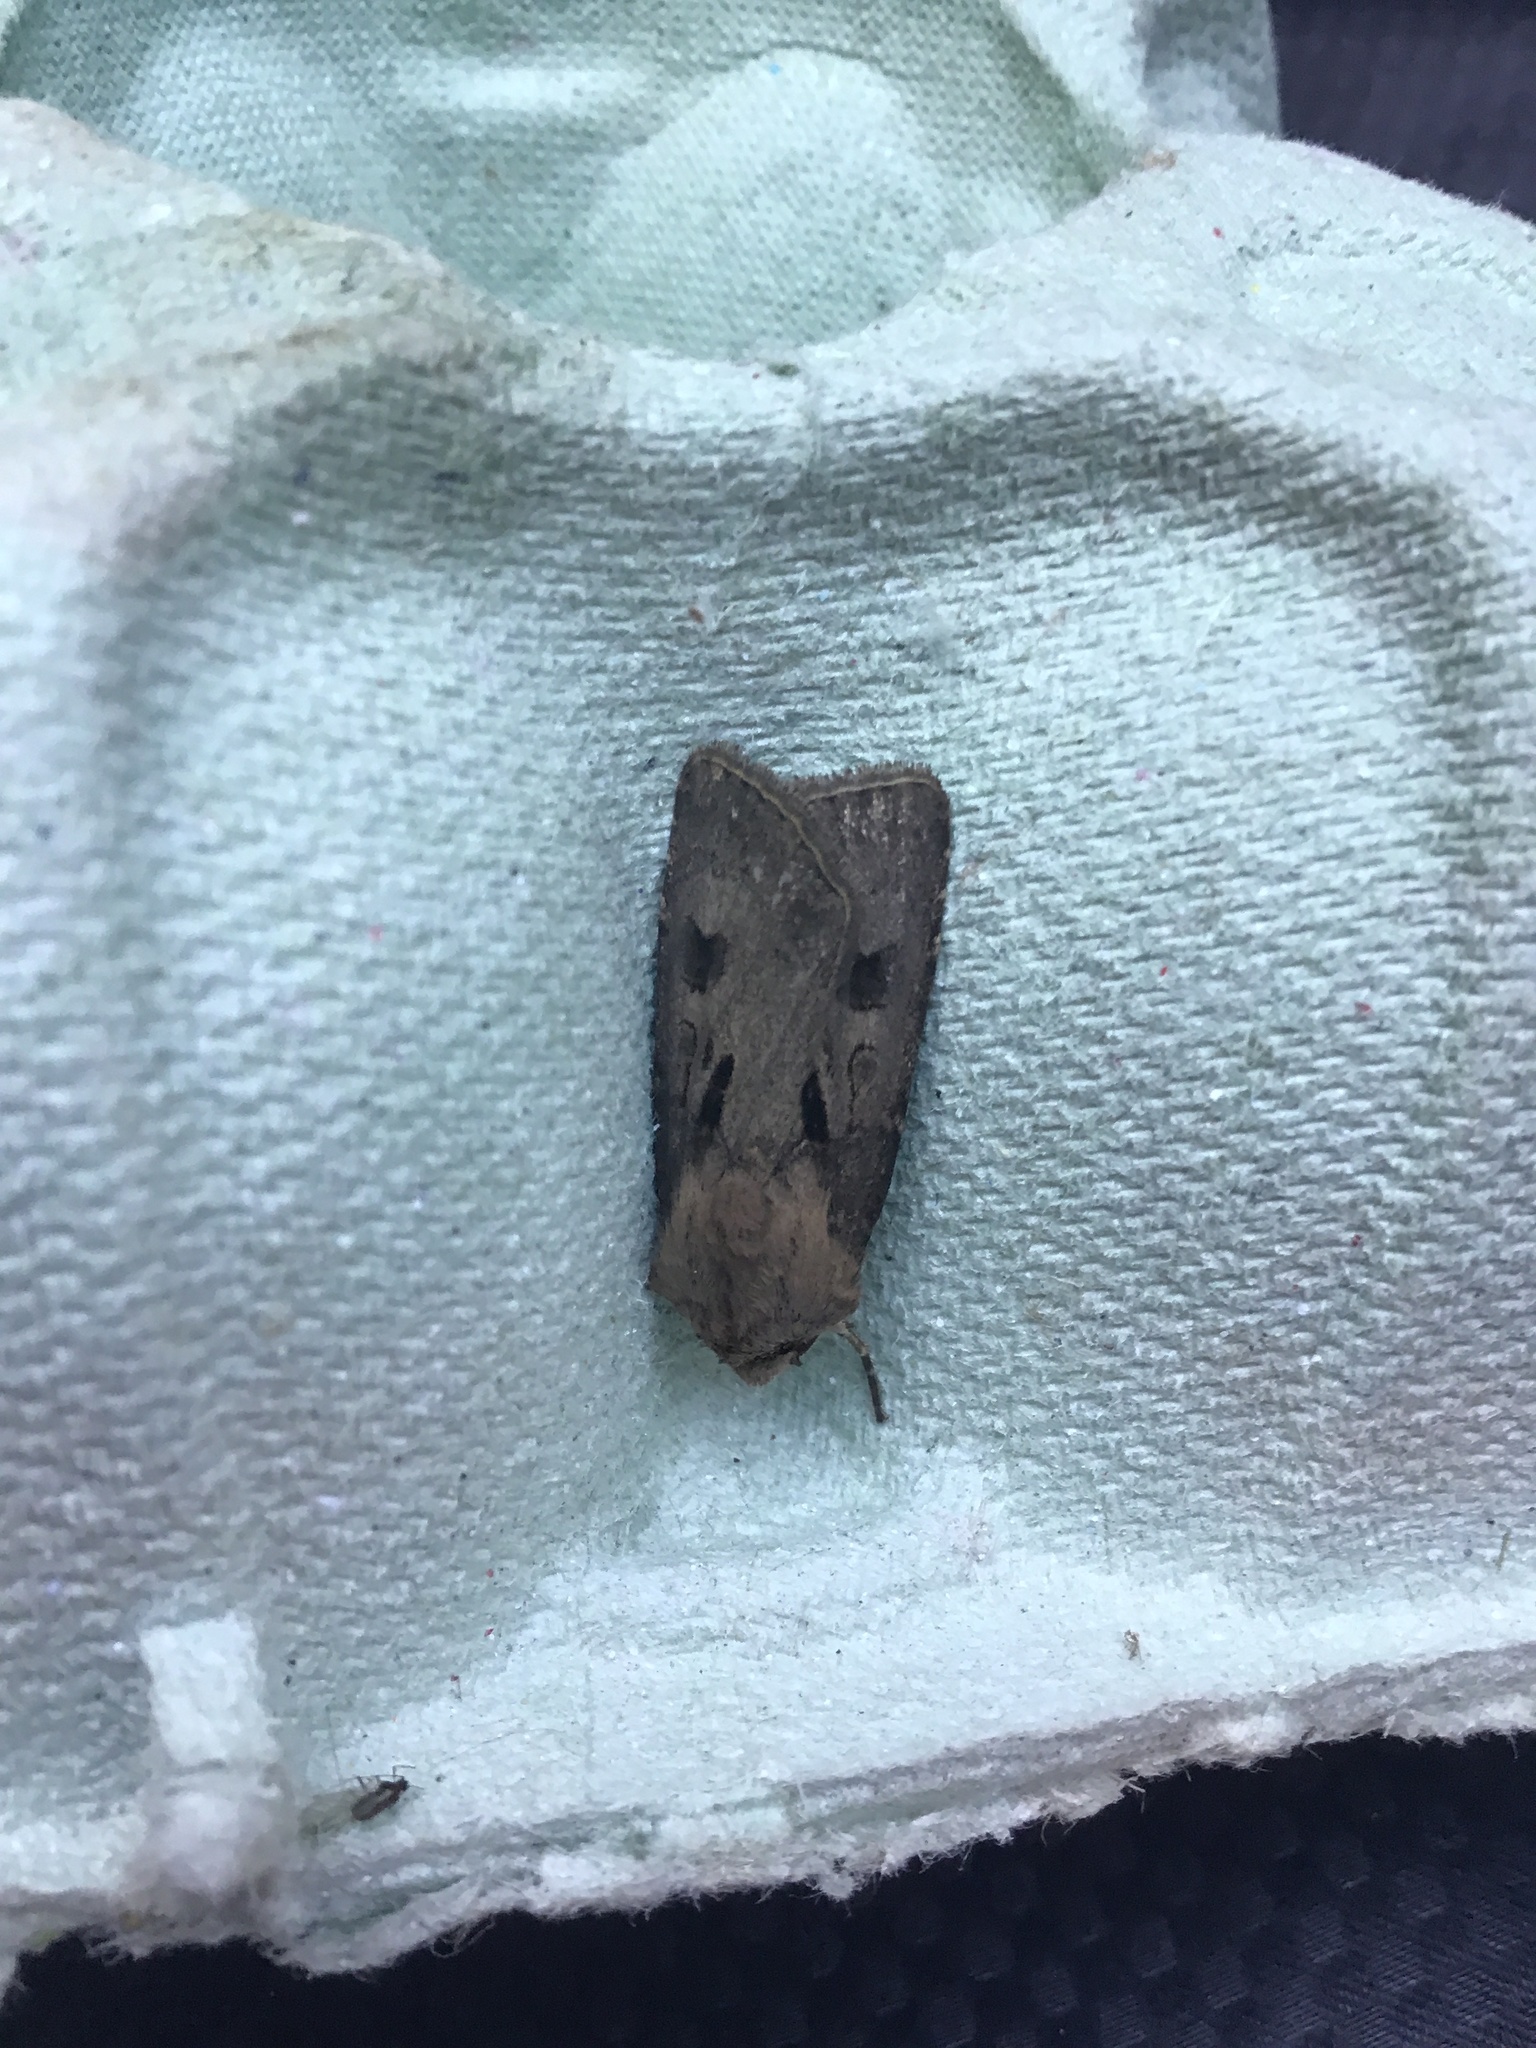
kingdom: Animalia
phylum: Arthropoda
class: Insecta
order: Lepidoptera
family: Noctuidae
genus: Agrotis
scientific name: Agrotis exclamationis
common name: Heart and dart
